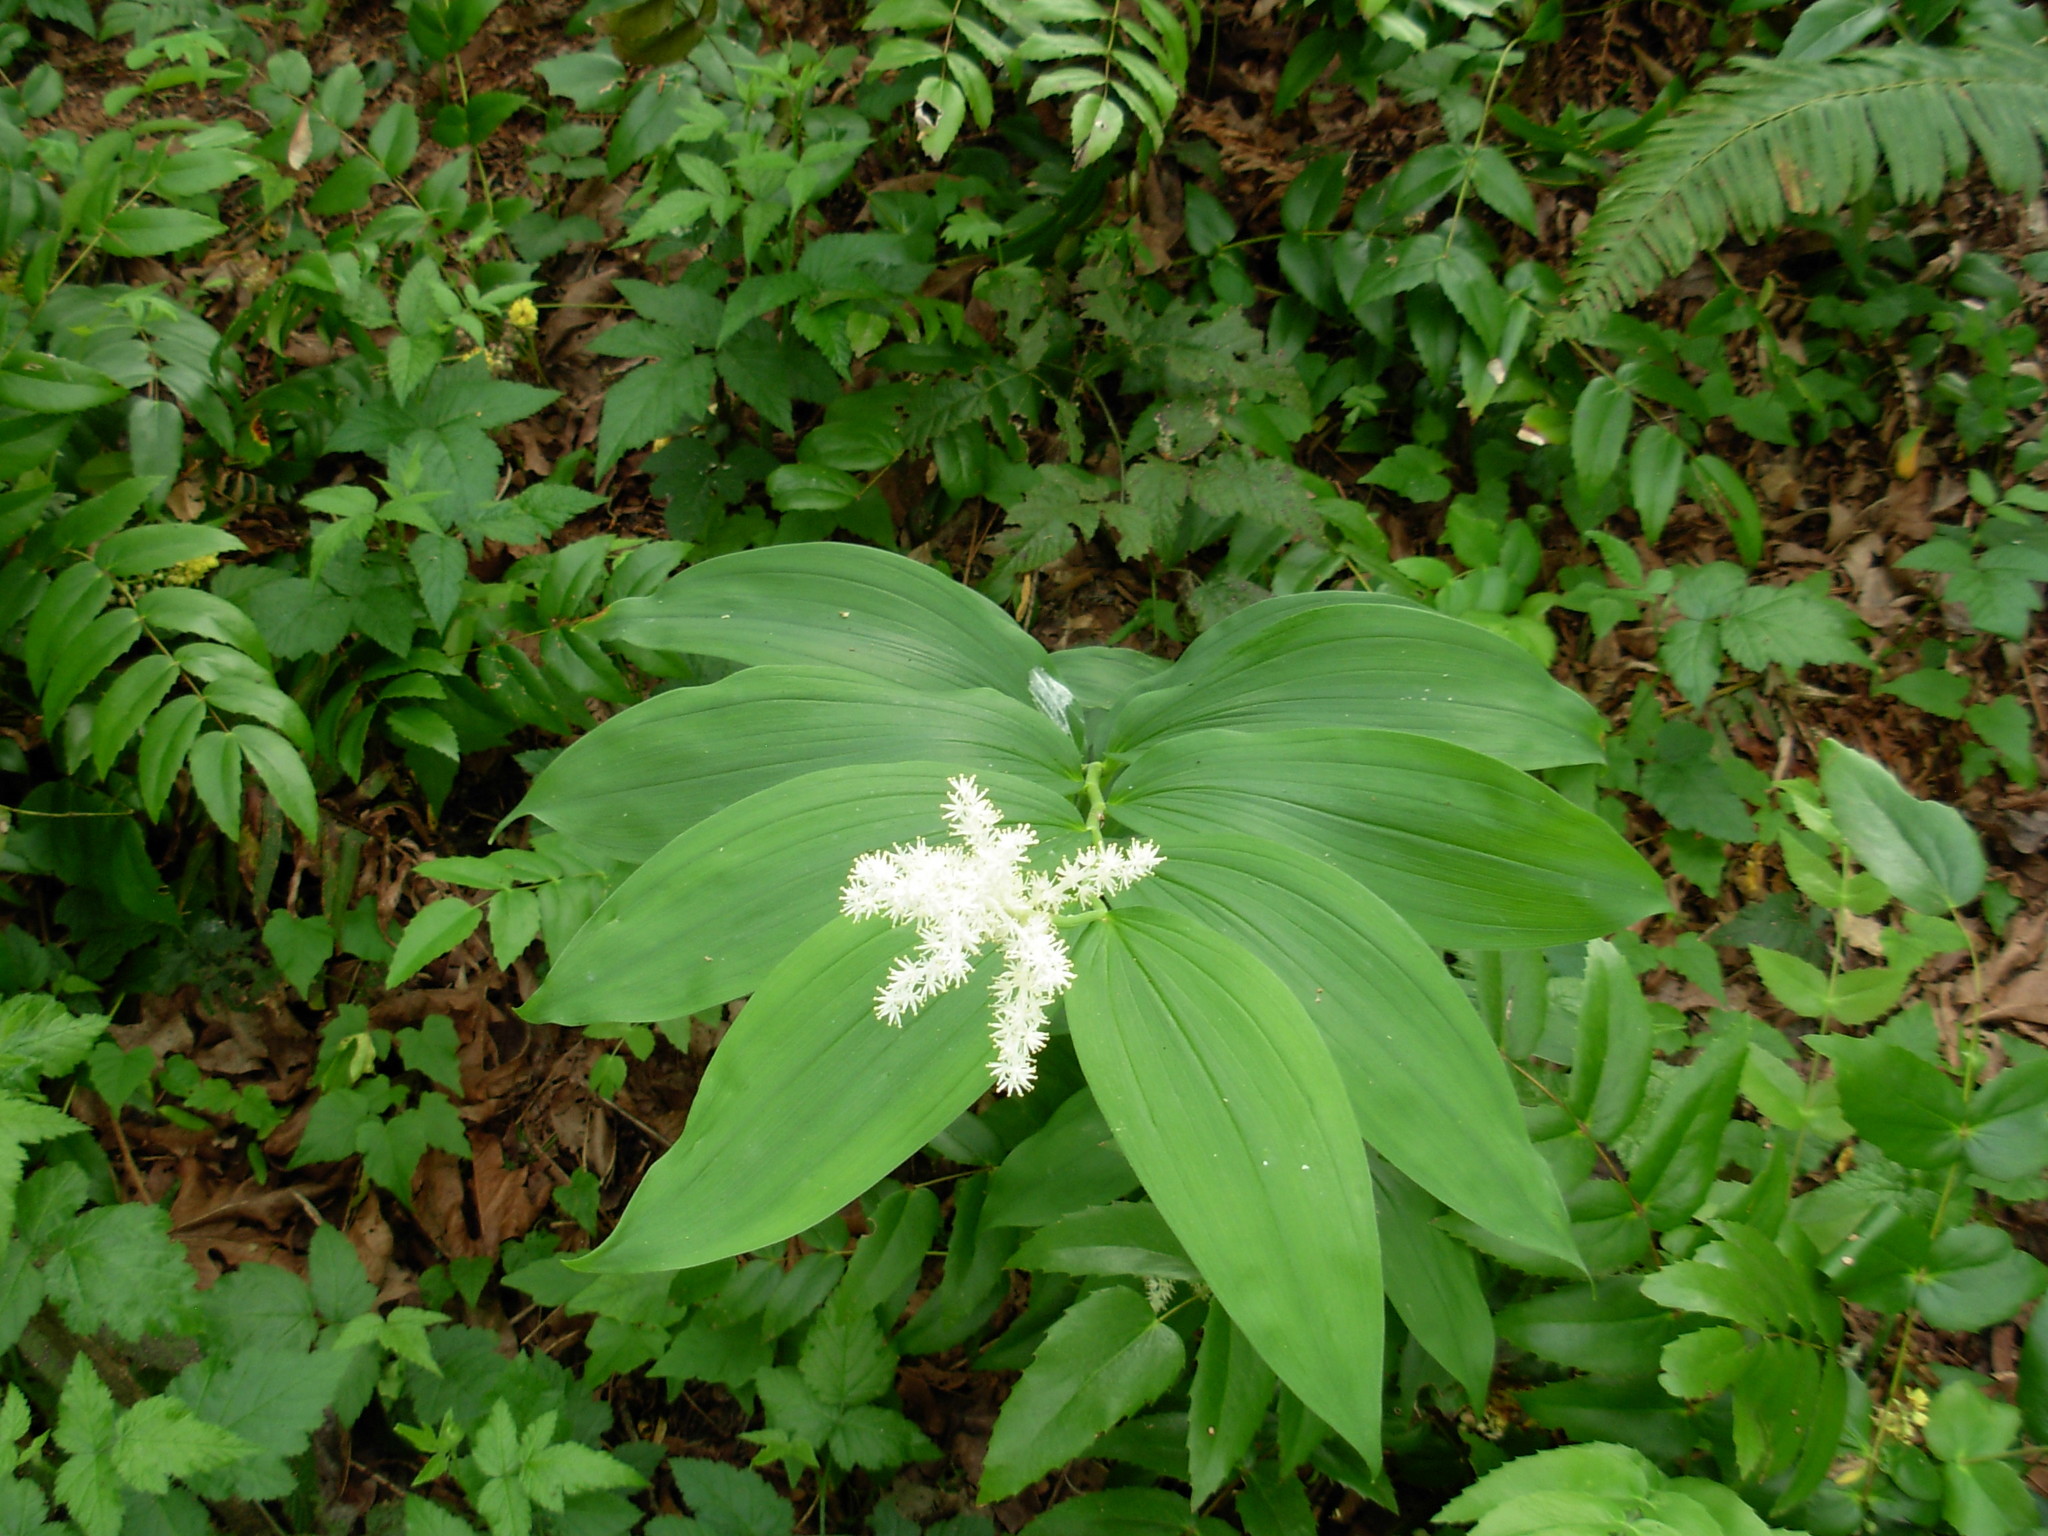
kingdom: Plantae
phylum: Tracheophyta
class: Liliopsida
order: Asparagales
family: Asparagaceae
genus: Maianthemum
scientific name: Maianthemum racemosum
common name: False spikenard
